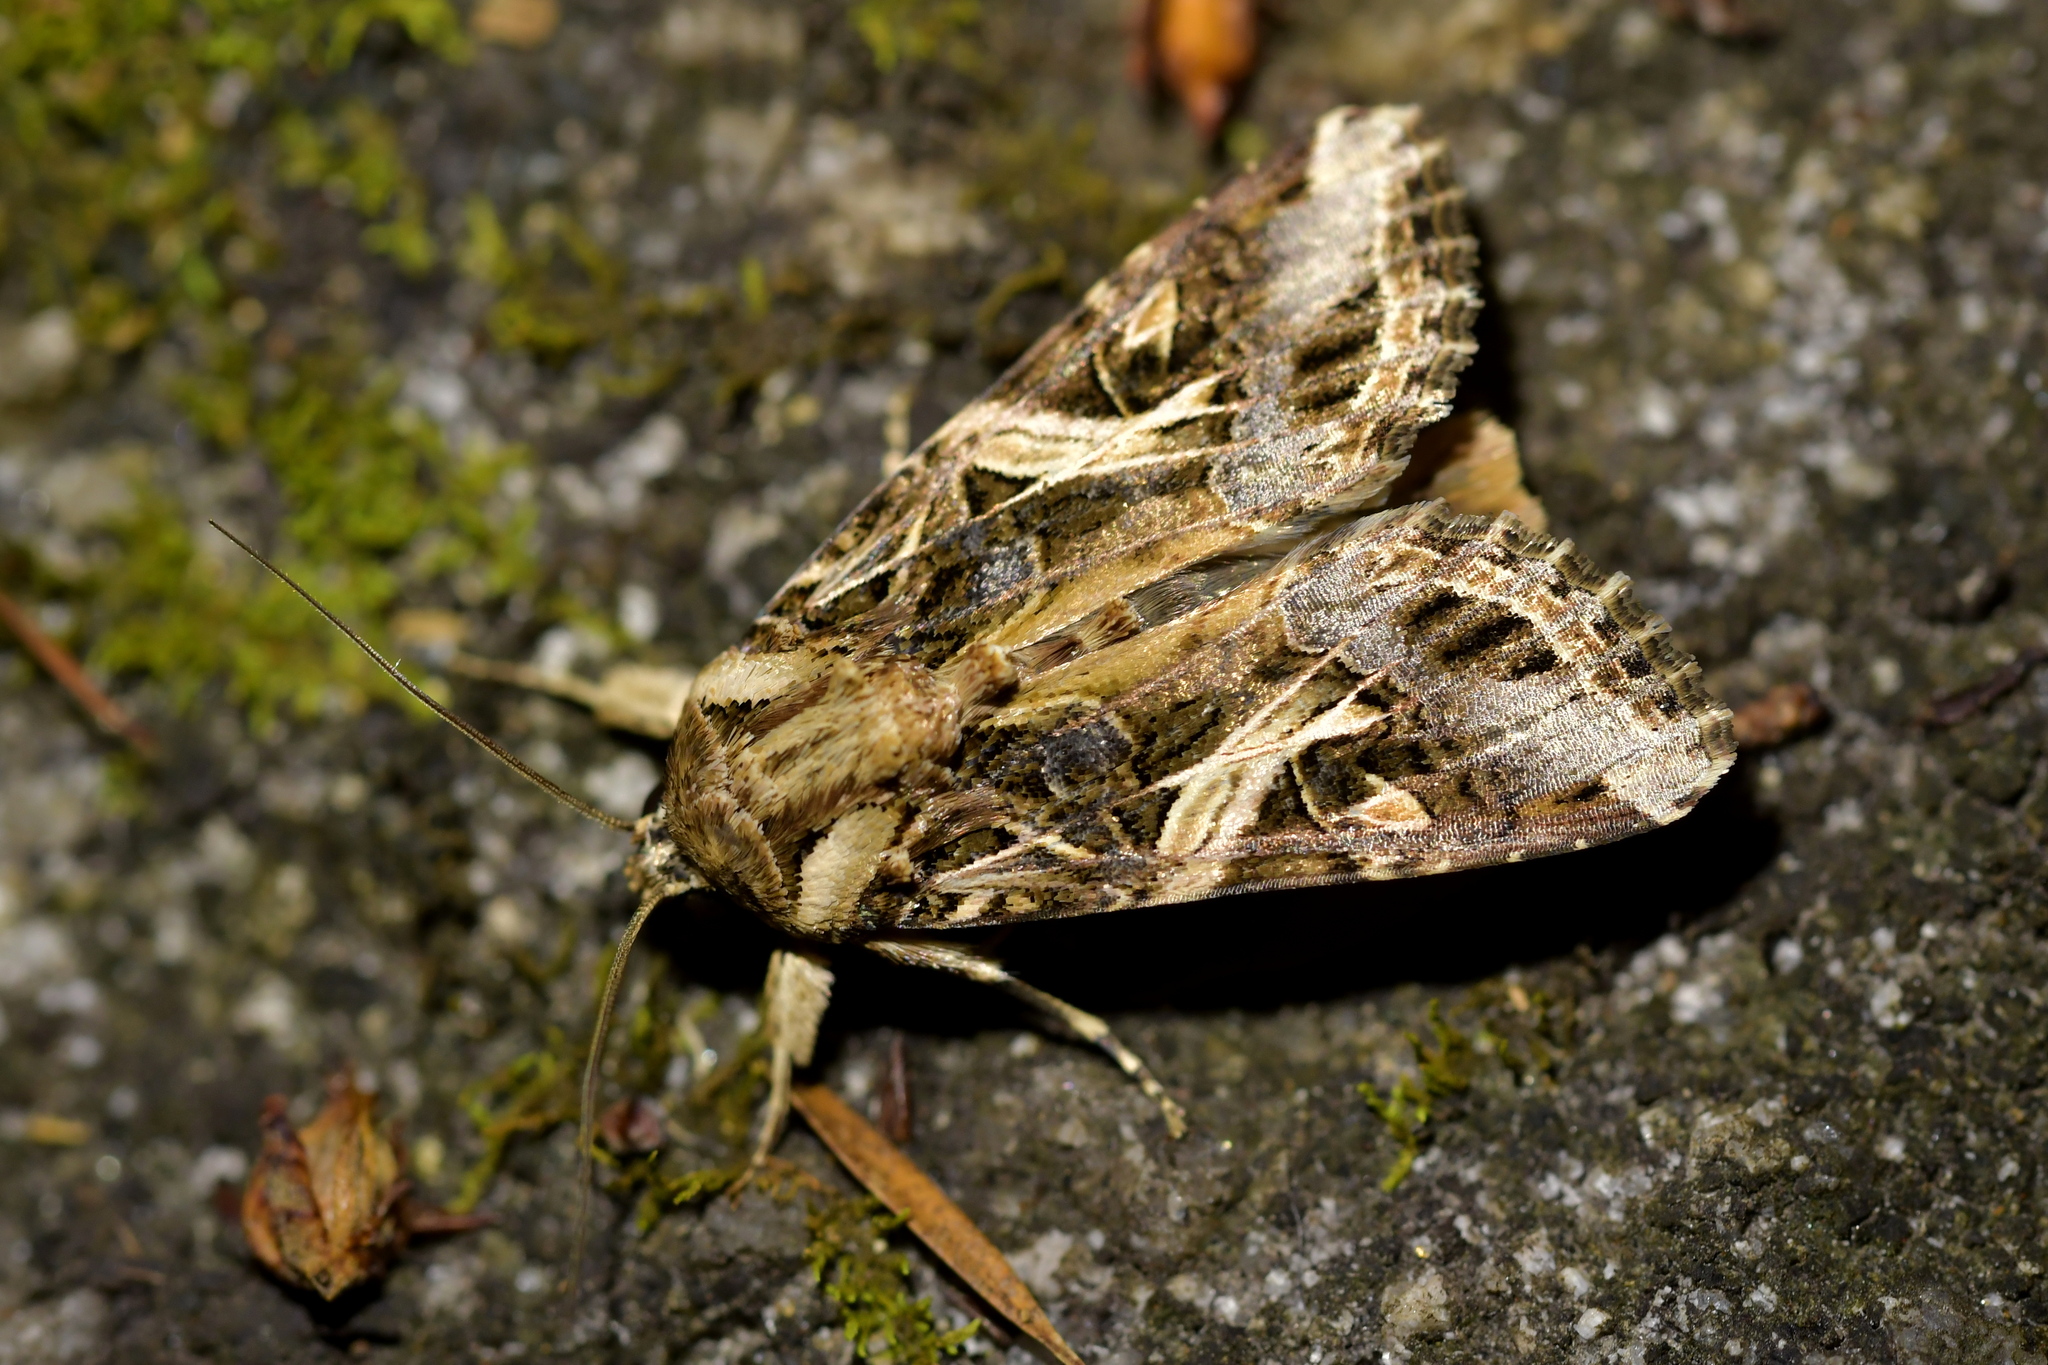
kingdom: Animalia
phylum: Arthropoda
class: Insecta
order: Lepidoptera
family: Noctuidae
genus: Spodoptera
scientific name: Spodoptera litura
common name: Asian cotton leafworm
